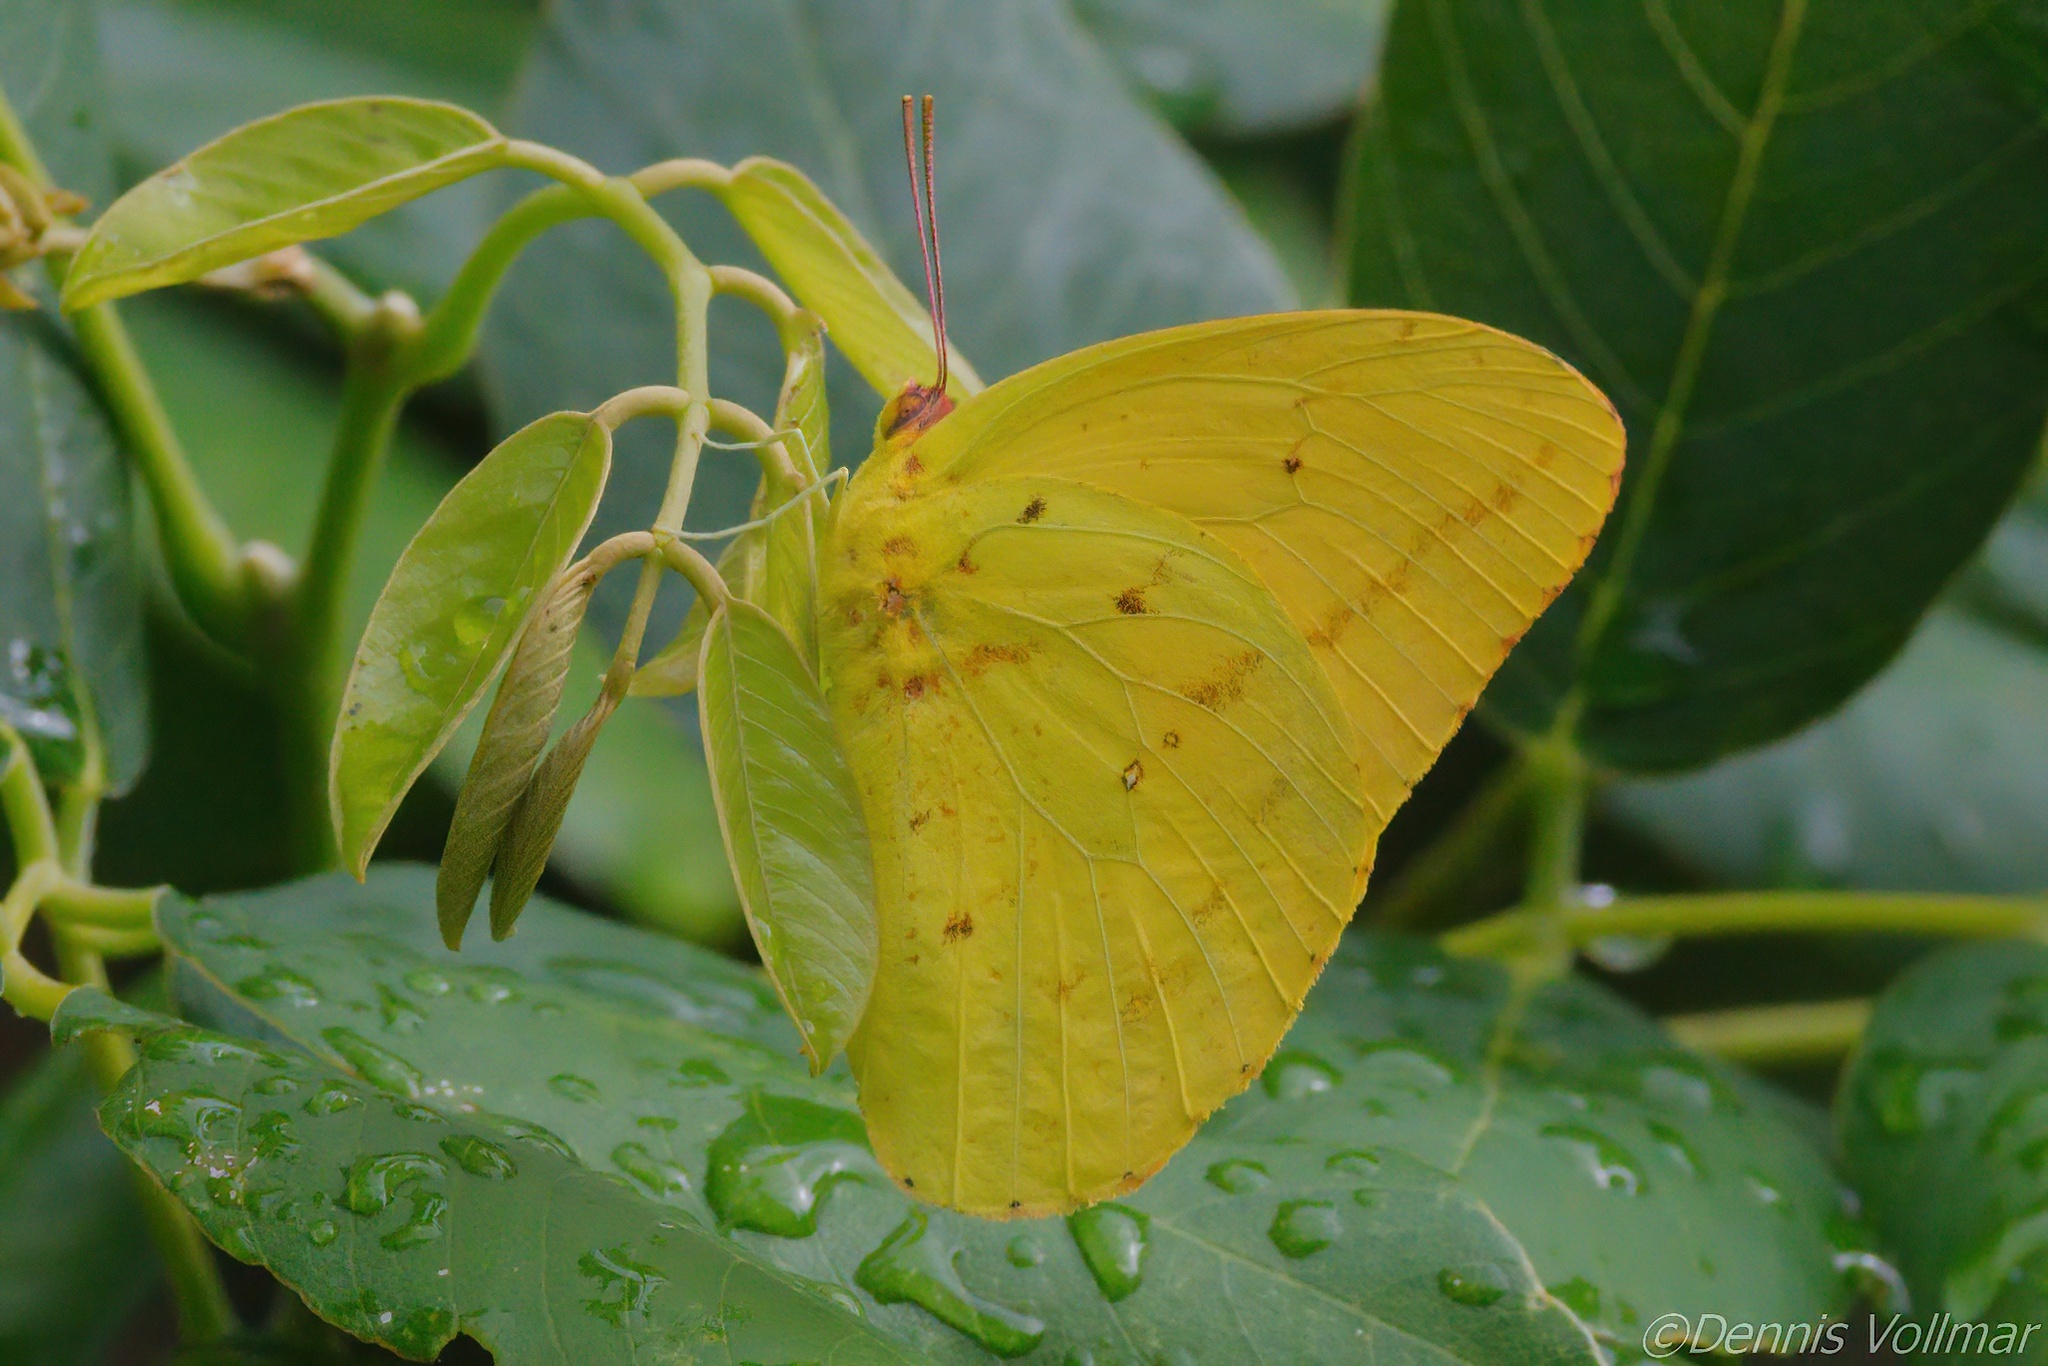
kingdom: Animalia
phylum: Arthropoda
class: Insecta
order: Lepidoptera
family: Pieridae
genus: Phoebis
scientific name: Phoebis agarithe
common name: Large orange sulphur
